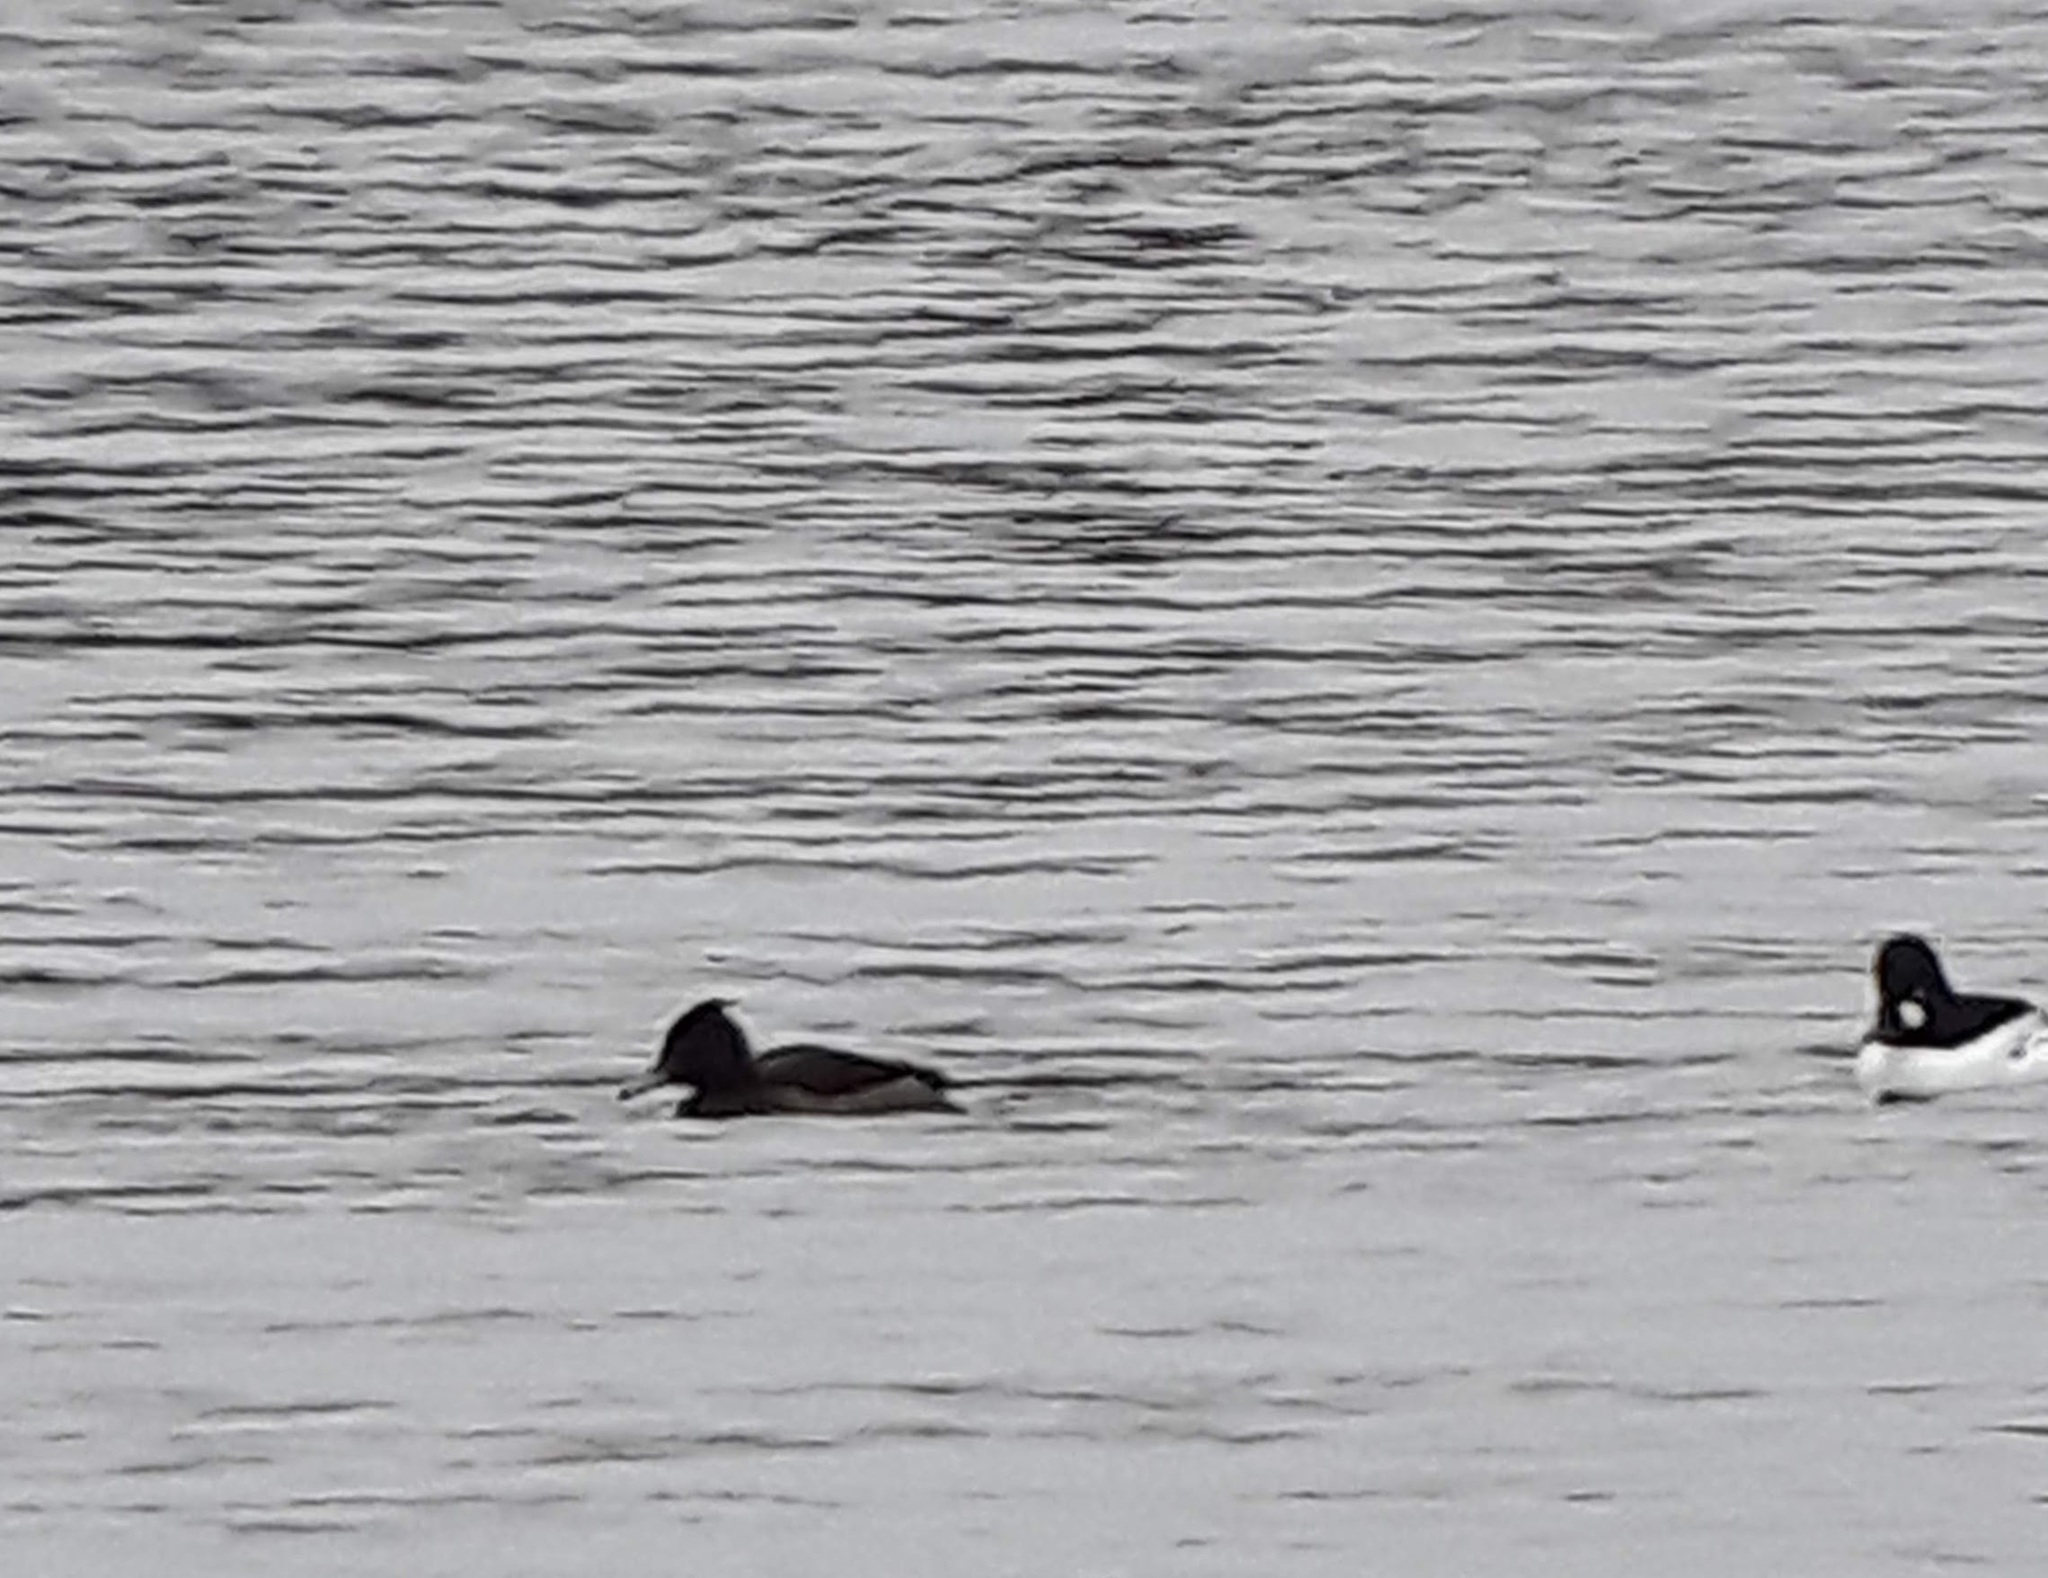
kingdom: Animalia
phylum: Chordata
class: Aves
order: Anseriformes
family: Anatidae
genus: Aythya
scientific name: Aythya fuligula
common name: Tufted duck
